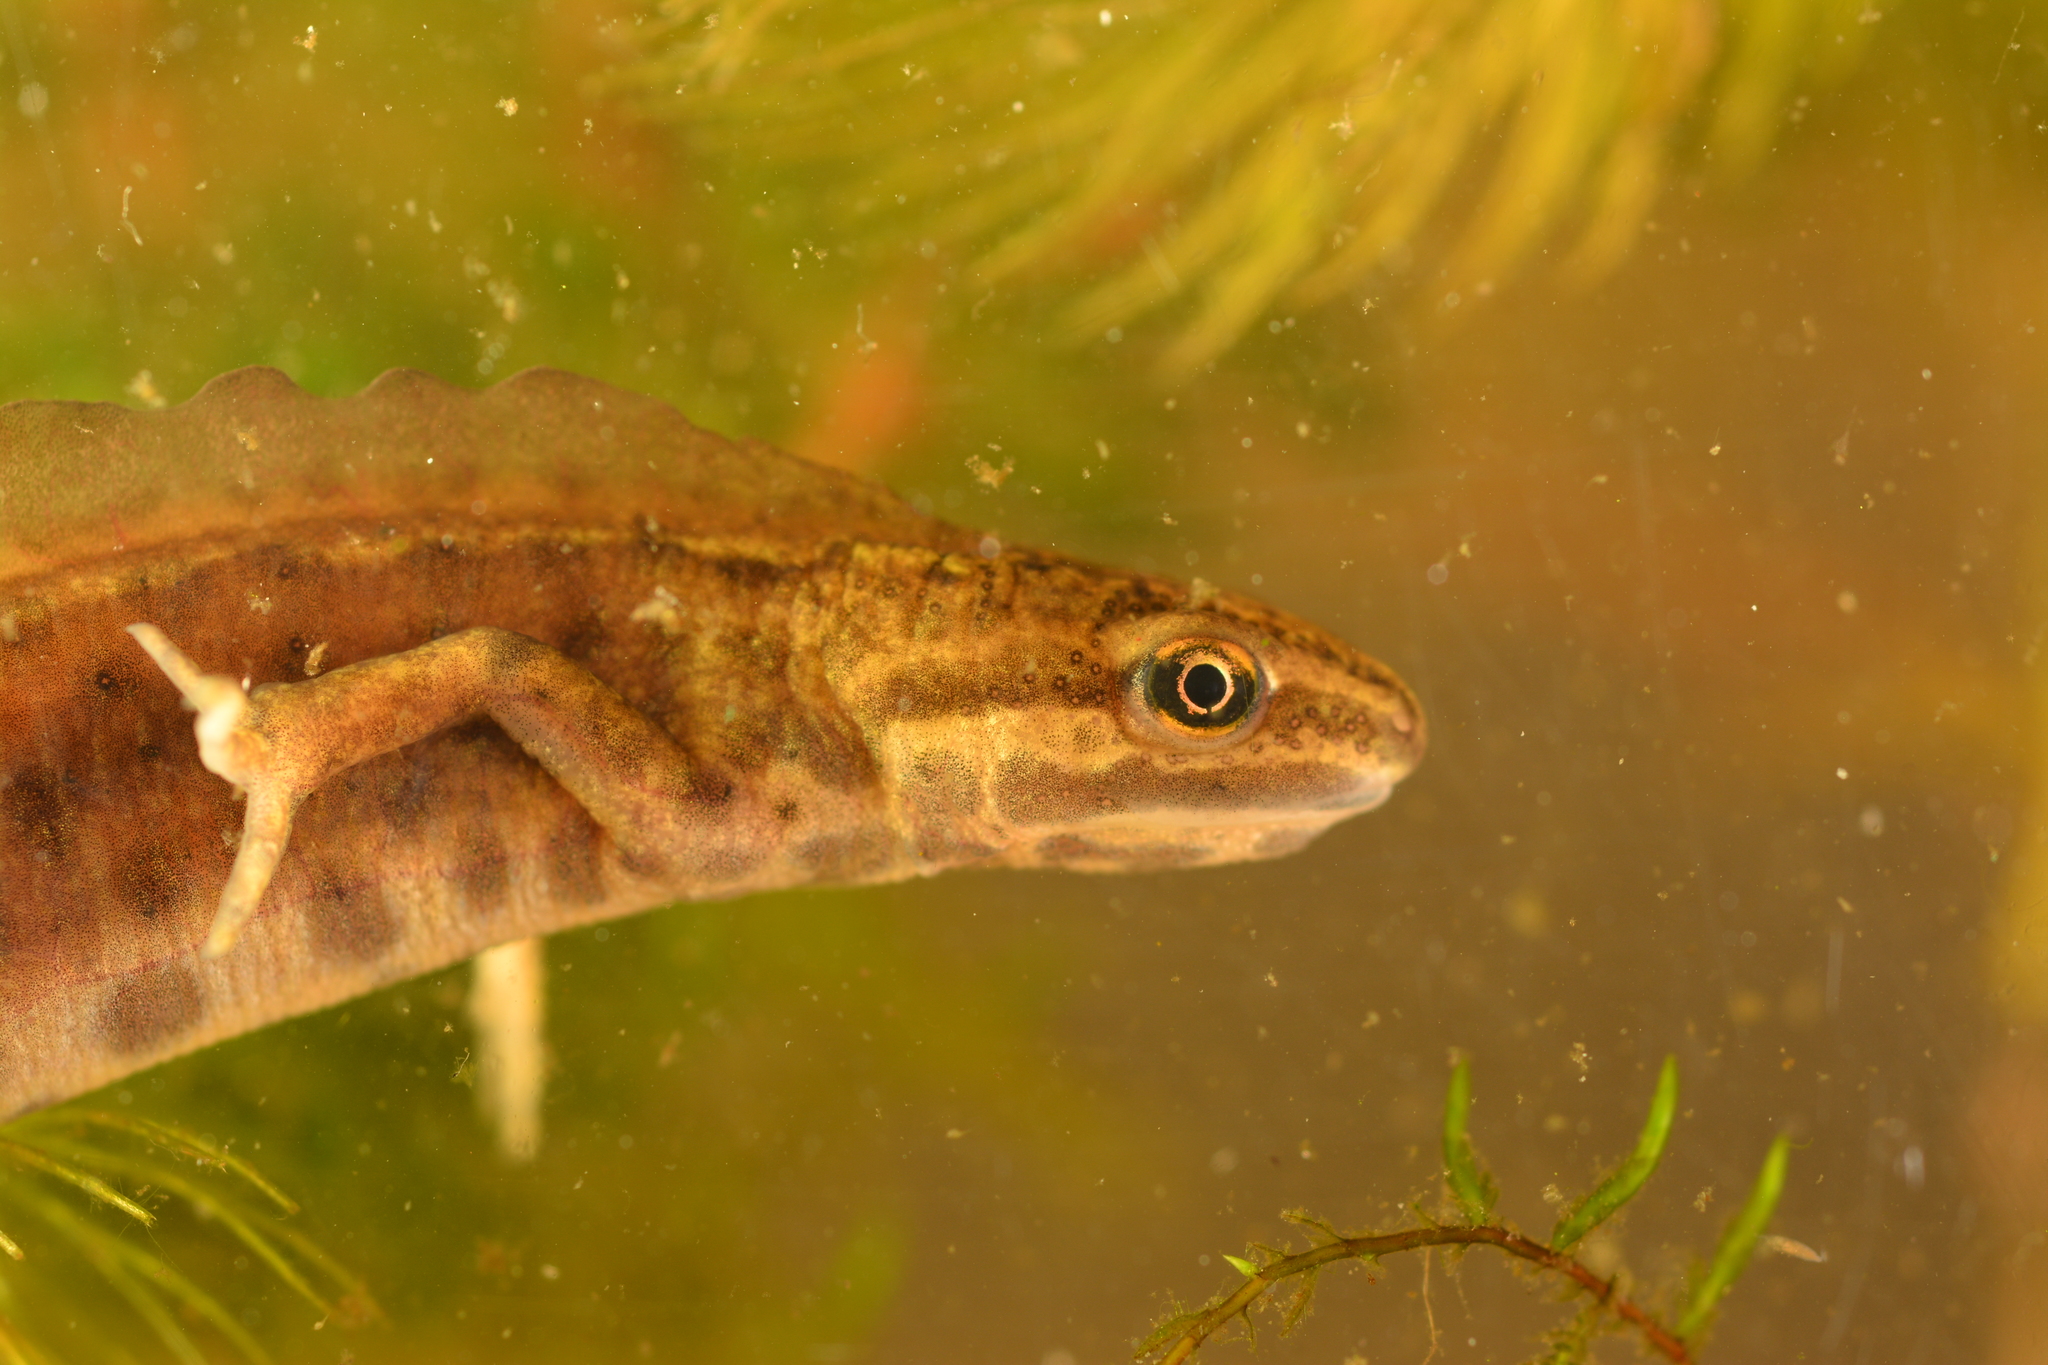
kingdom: Animalia
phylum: Chordata
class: Amphibia
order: Caudata
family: Salamandridae
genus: Lissotriton
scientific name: Lissotriton vulgaris
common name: Smooth newt
